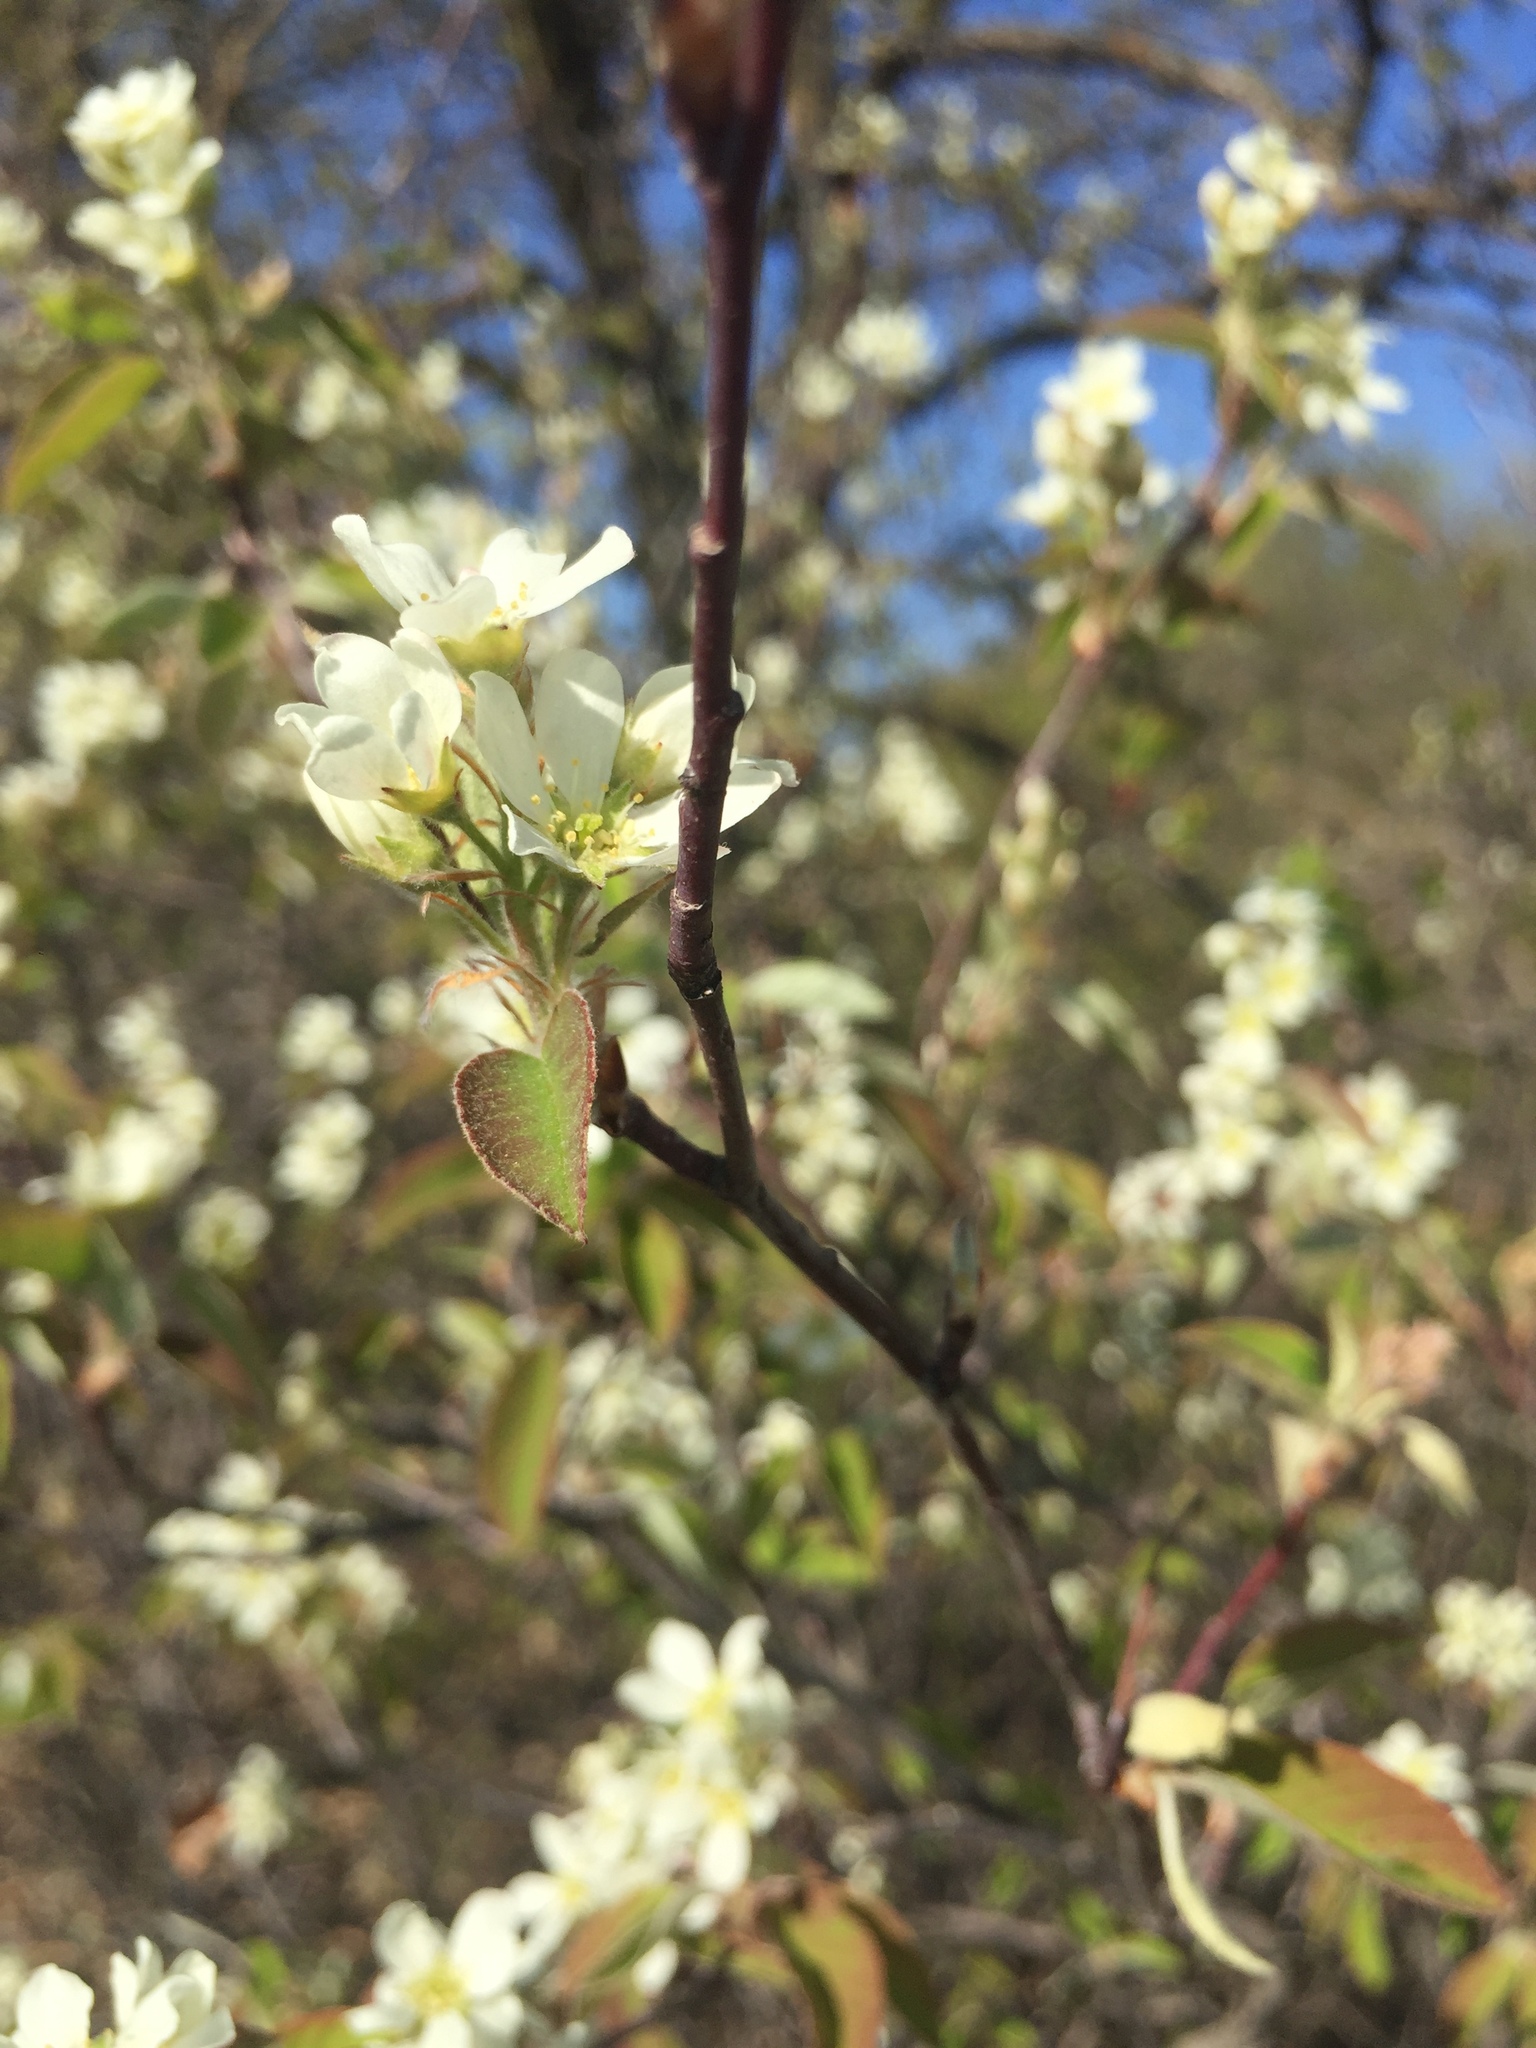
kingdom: Plantae
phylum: Tracheophyta
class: Magnoliopsida
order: Rosales
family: Rosaceae
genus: Amelanchier
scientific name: Amelanchier alnifolia
